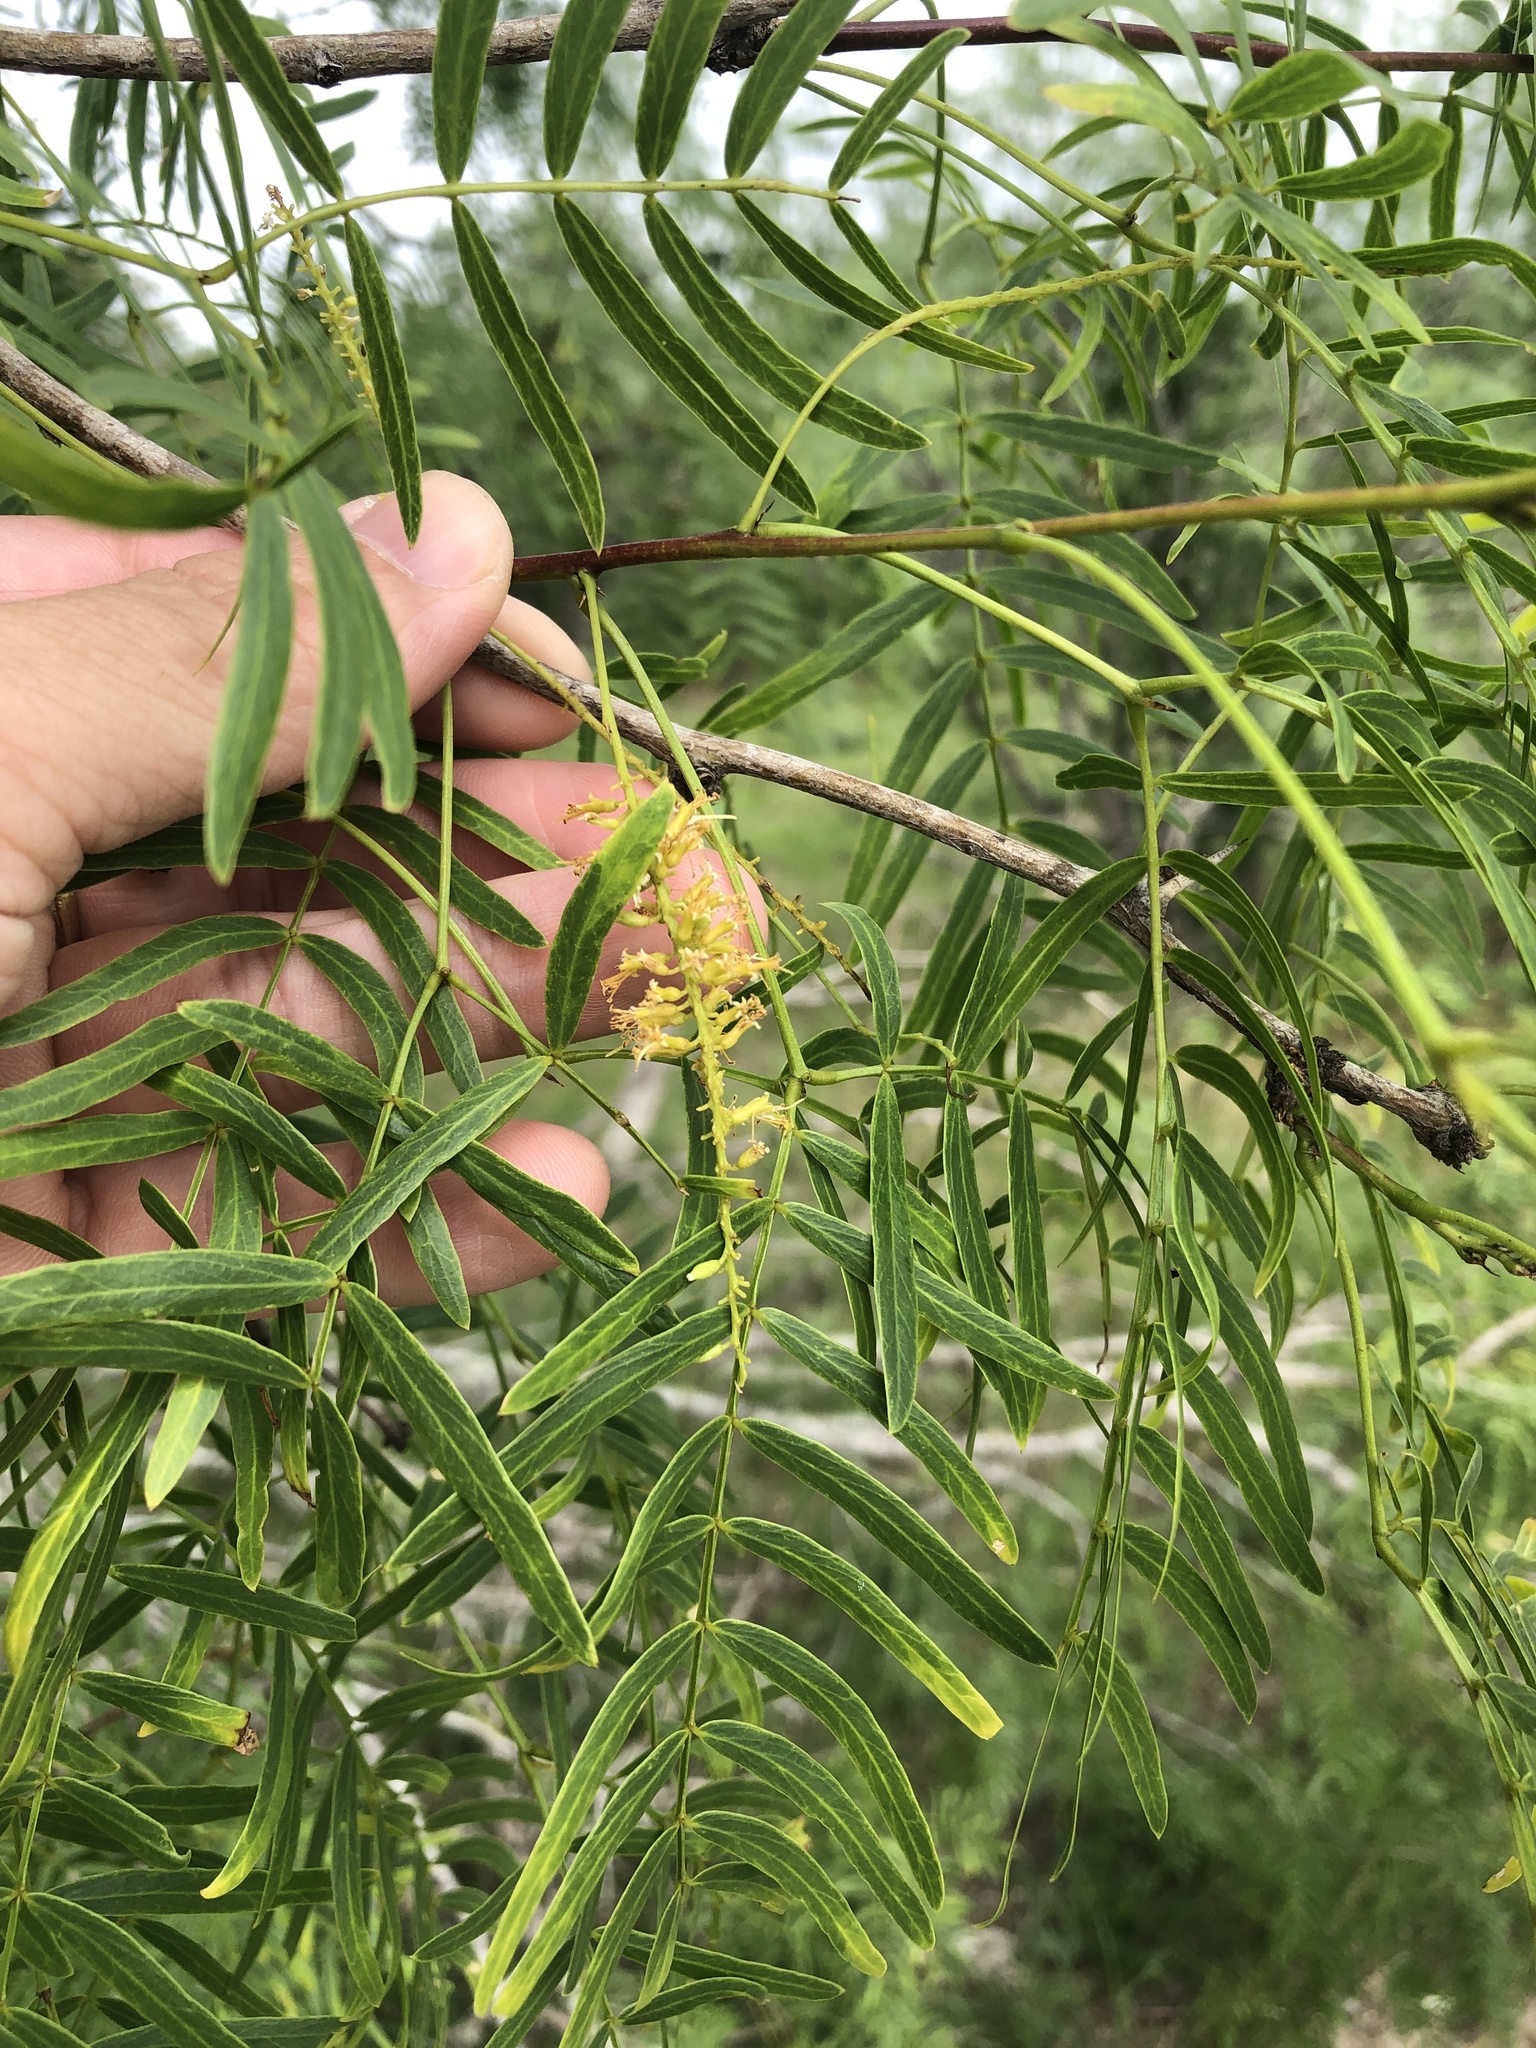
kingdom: Plantae
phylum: Tracheophyta
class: Magnoliopsida
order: Fabales
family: Fabaceae
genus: Prosopis
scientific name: Prosopis glandulosa
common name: Honey mesquite
